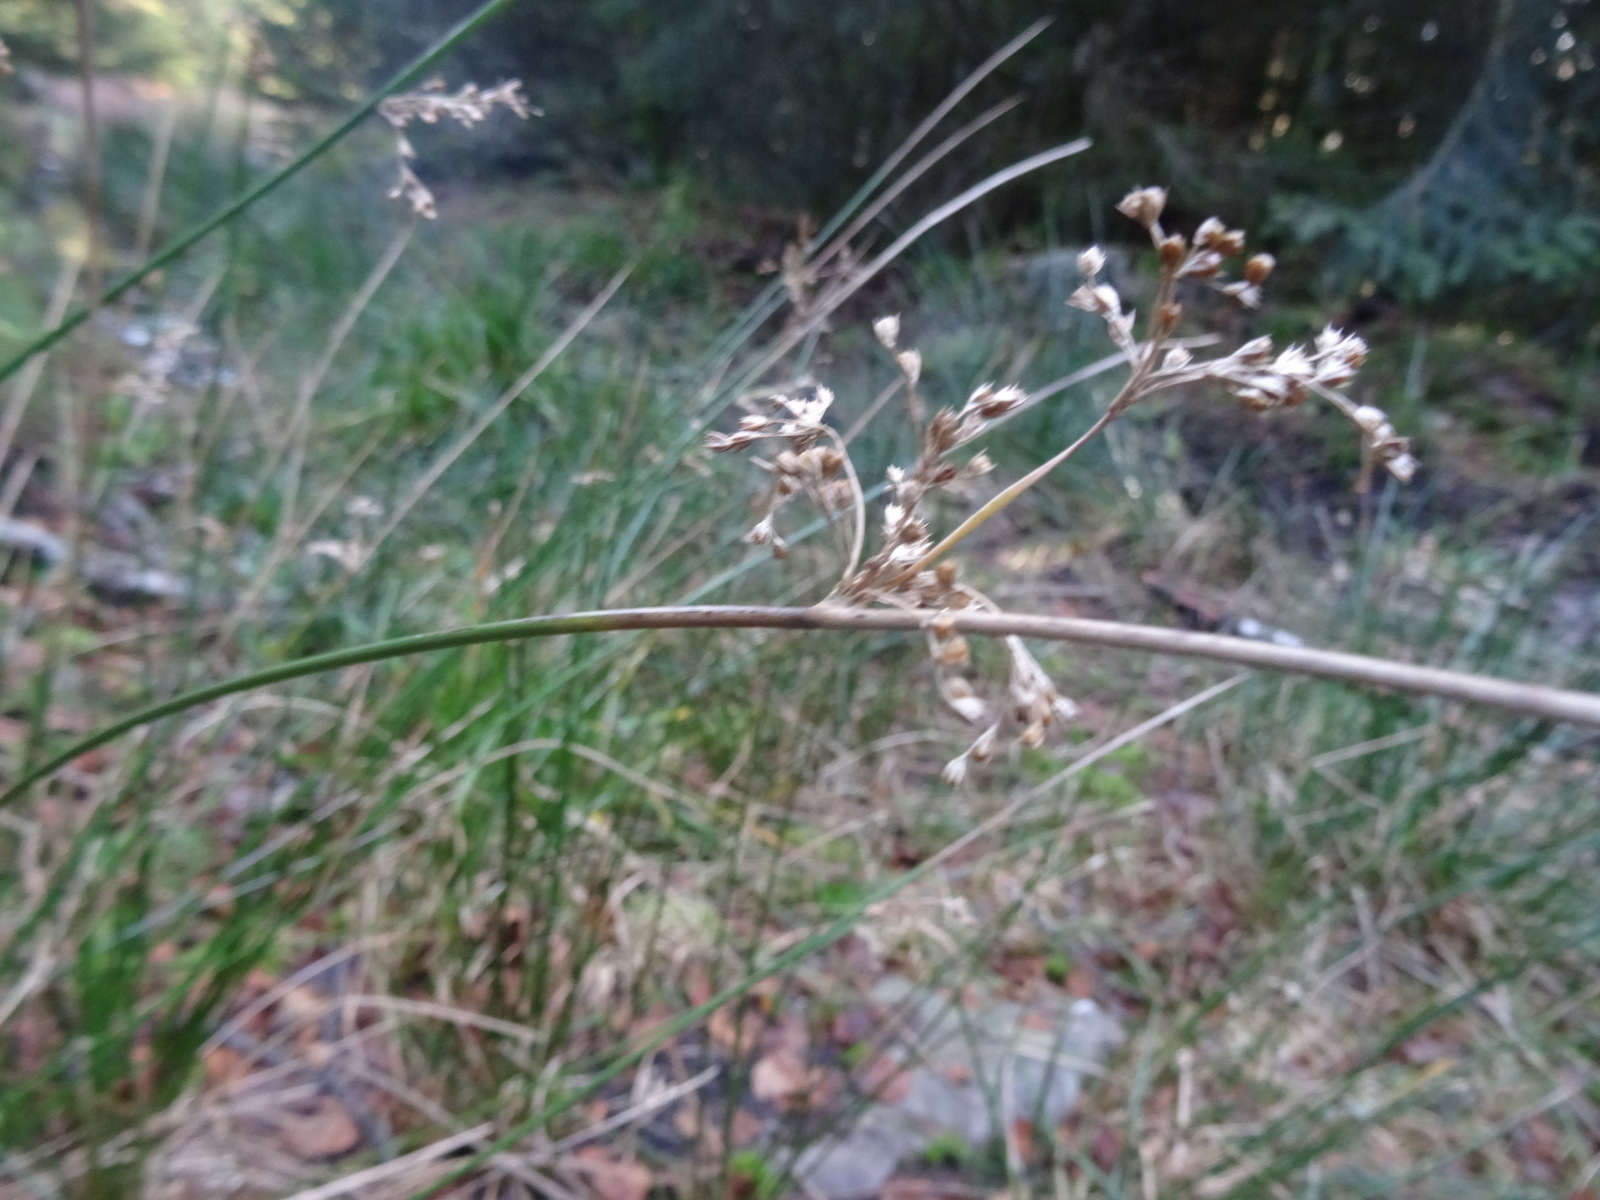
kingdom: Plantae
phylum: Tracheophyta
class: Liliopsida
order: Poales
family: Juncaceae
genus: Juncus
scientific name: Juncus effusus
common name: Soft rush
